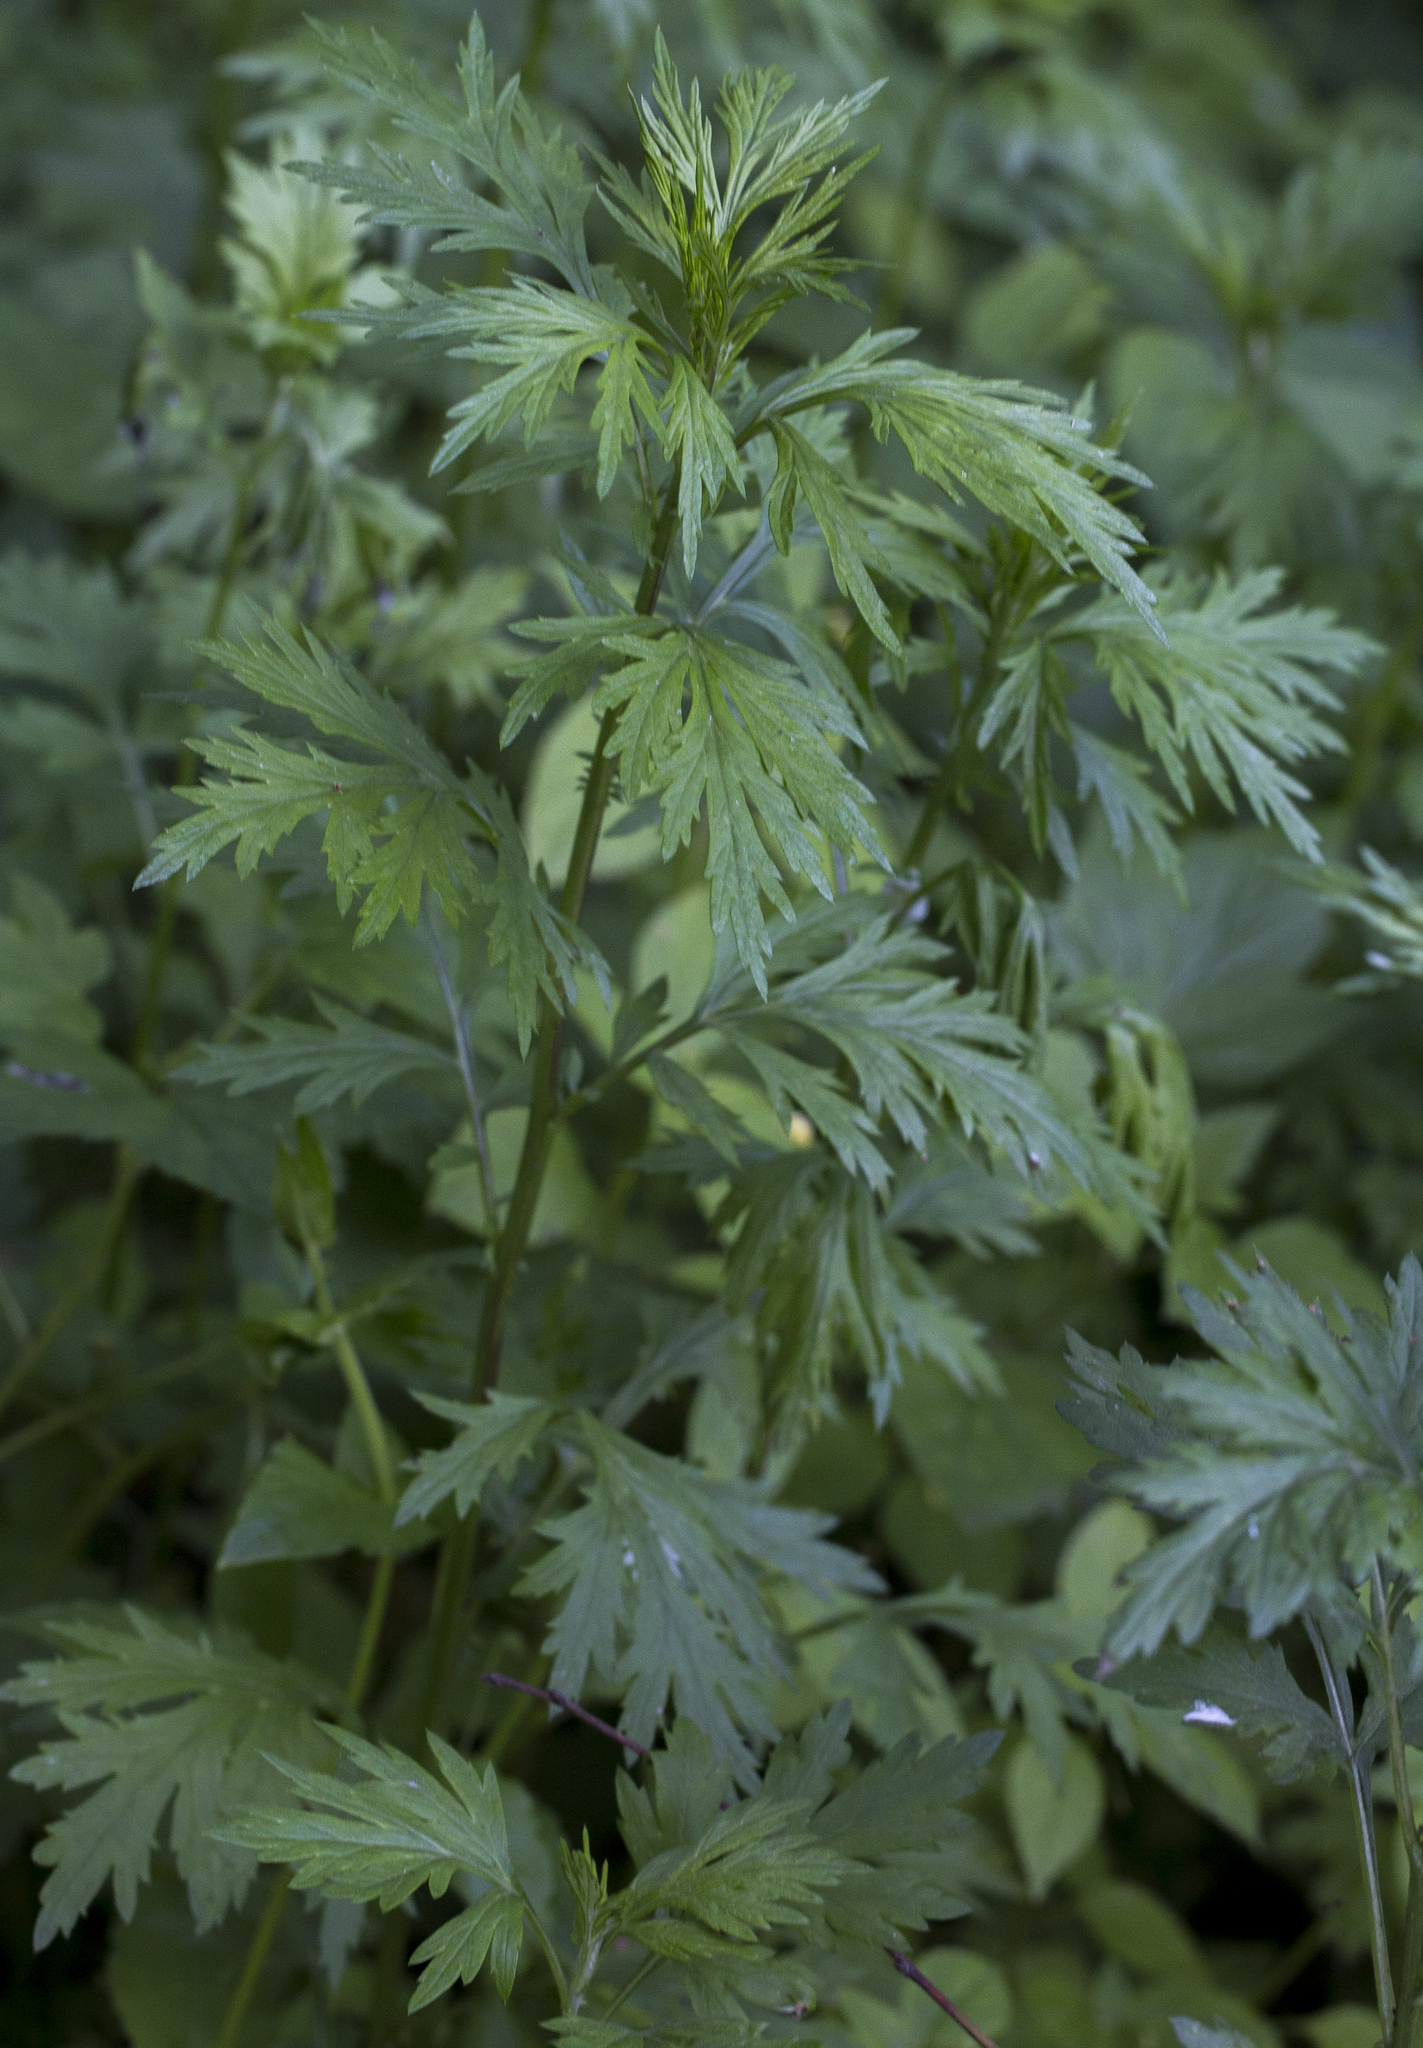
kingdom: Plantae
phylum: Tracheophyta
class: Magnoliopsida
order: Asterales
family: Asteraceae
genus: Artemisia
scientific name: Artemisia vulgaris
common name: Mugwort
